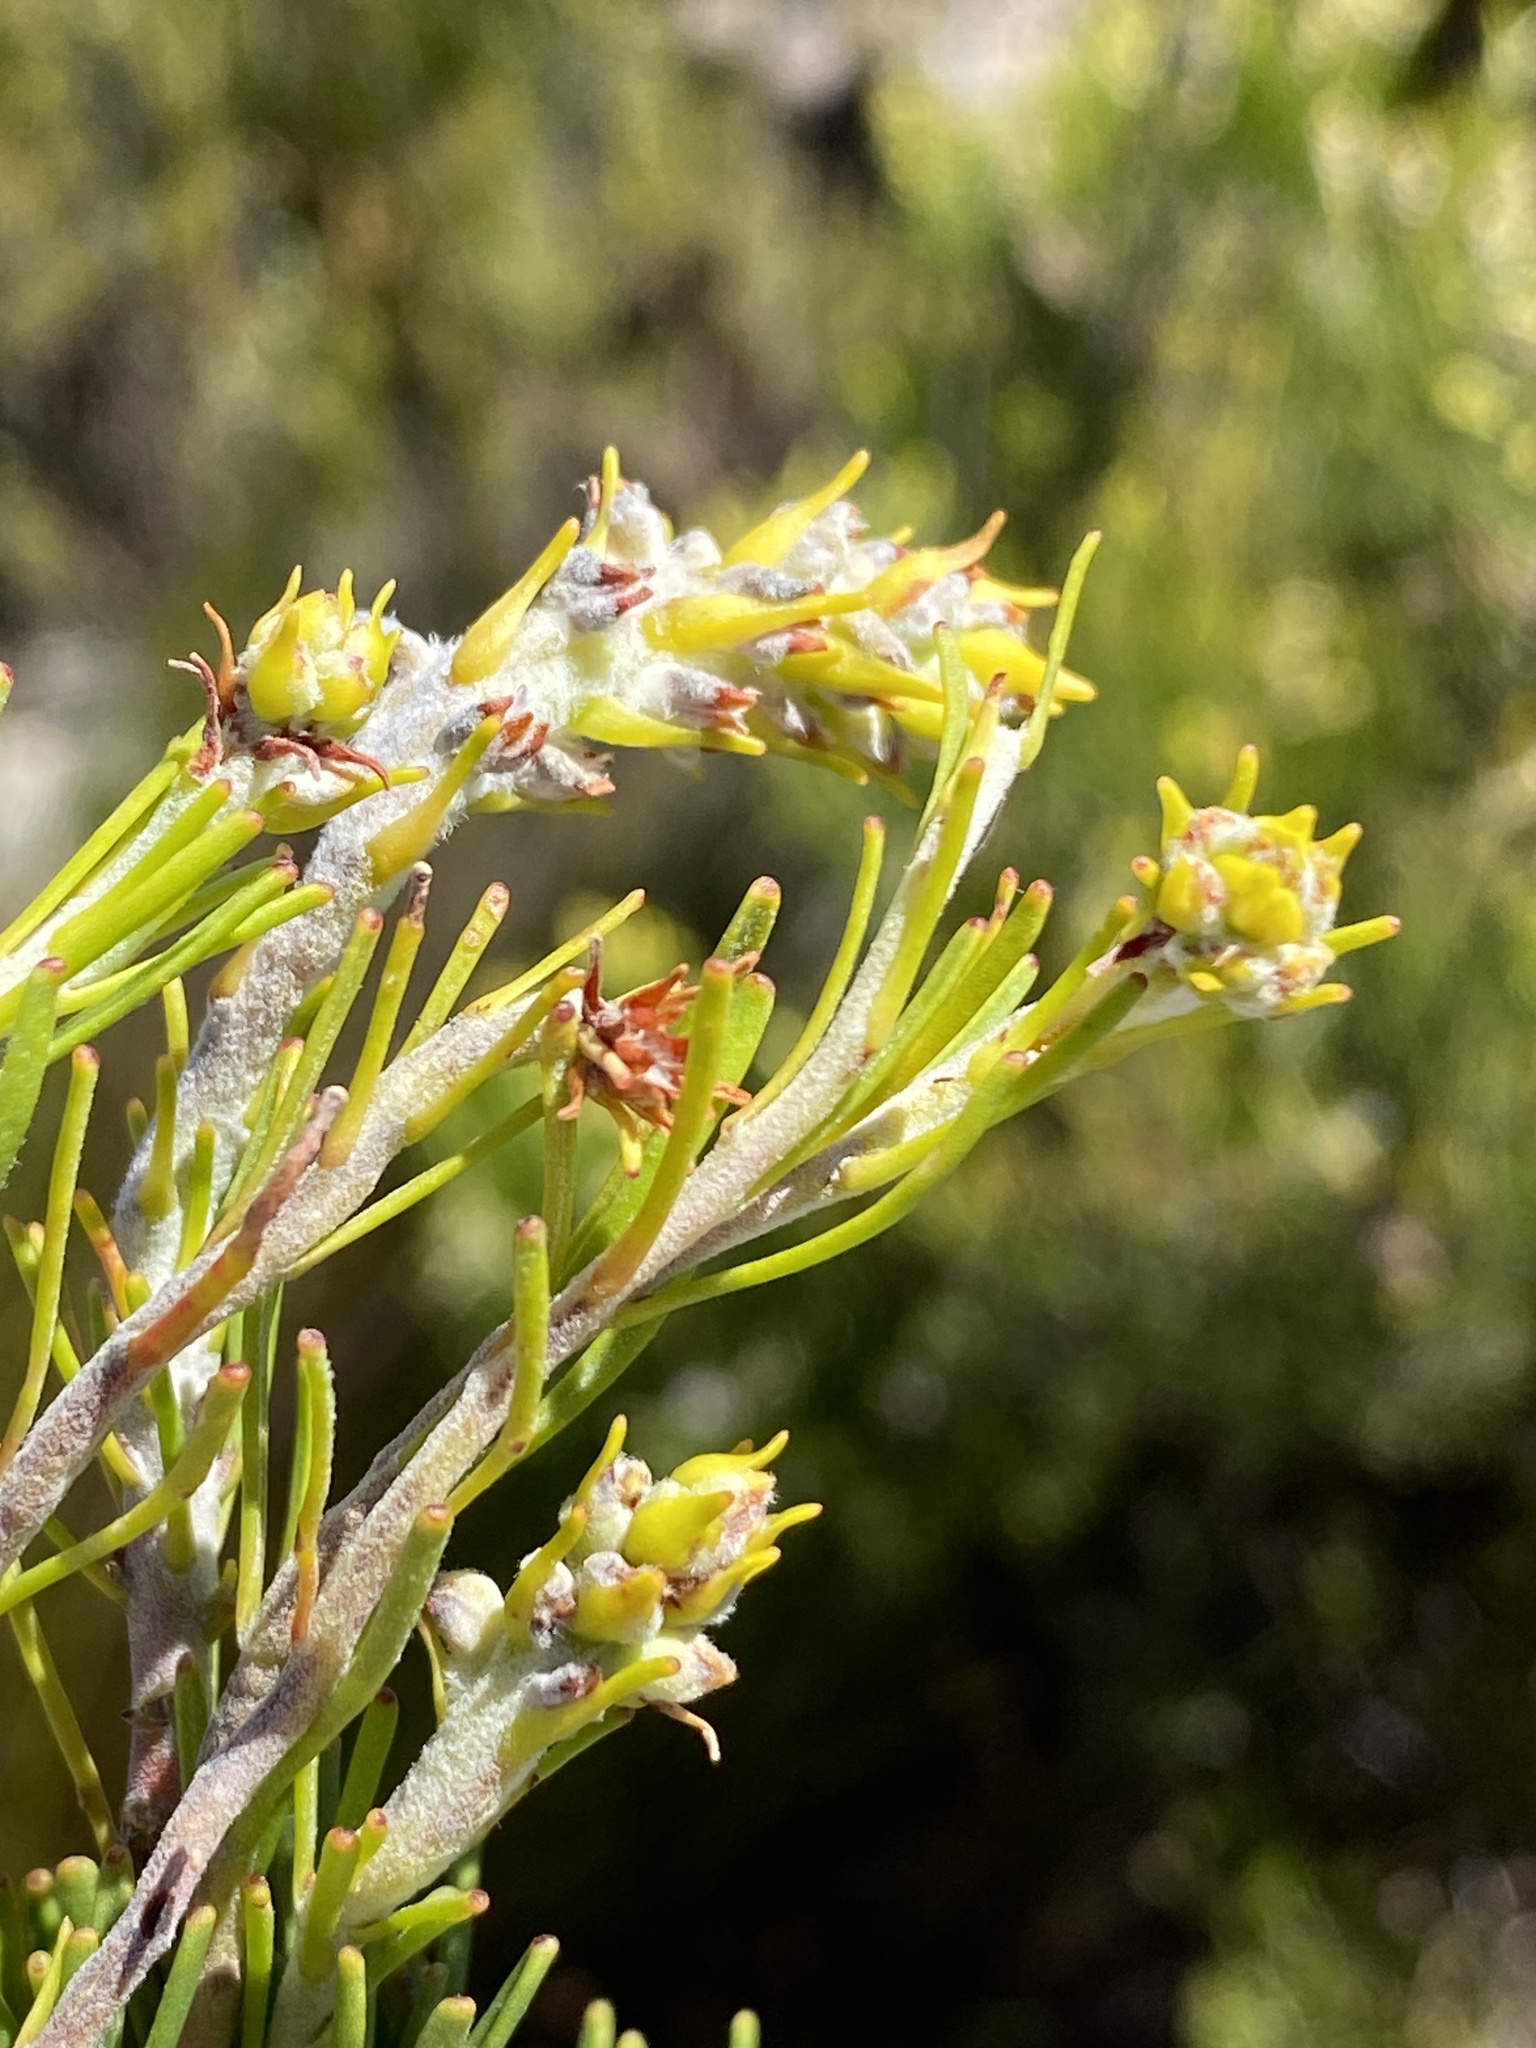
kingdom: Plantae
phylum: Tracheophyta
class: Magnoliopsida
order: Proteales
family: Proteaceae
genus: Paranomus
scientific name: Paranomus esterhuyseniae
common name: Kouga sceptre
